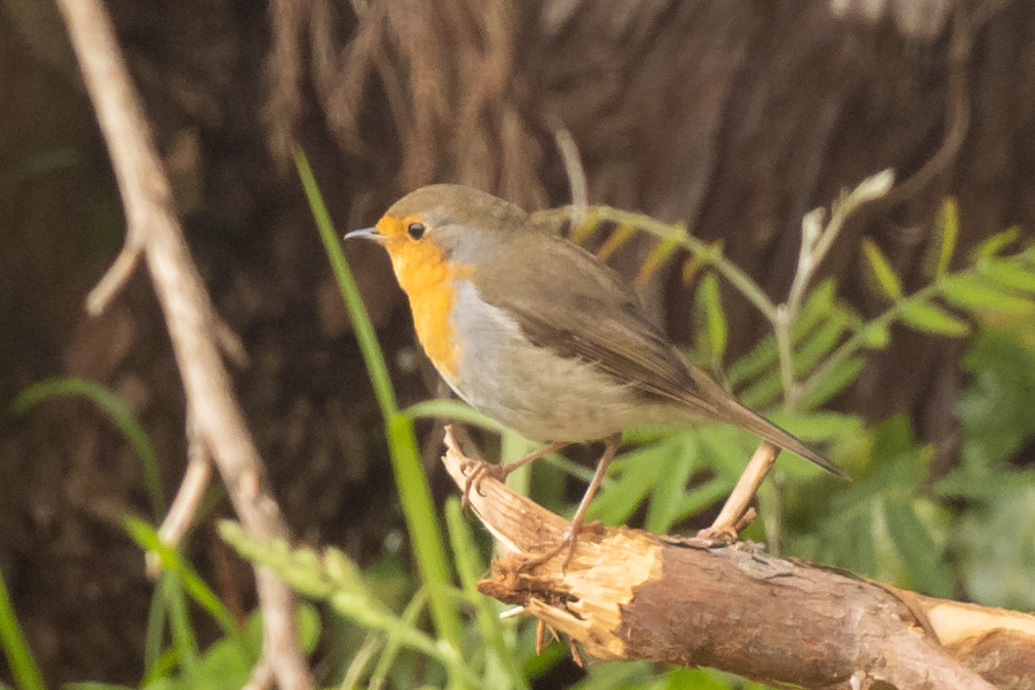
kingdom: Animalia
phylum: Chordata
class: Aves
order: Passeriformes
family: Muscicapidae
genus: Erithacus
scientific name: Erithacus rubecula
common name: European robin
